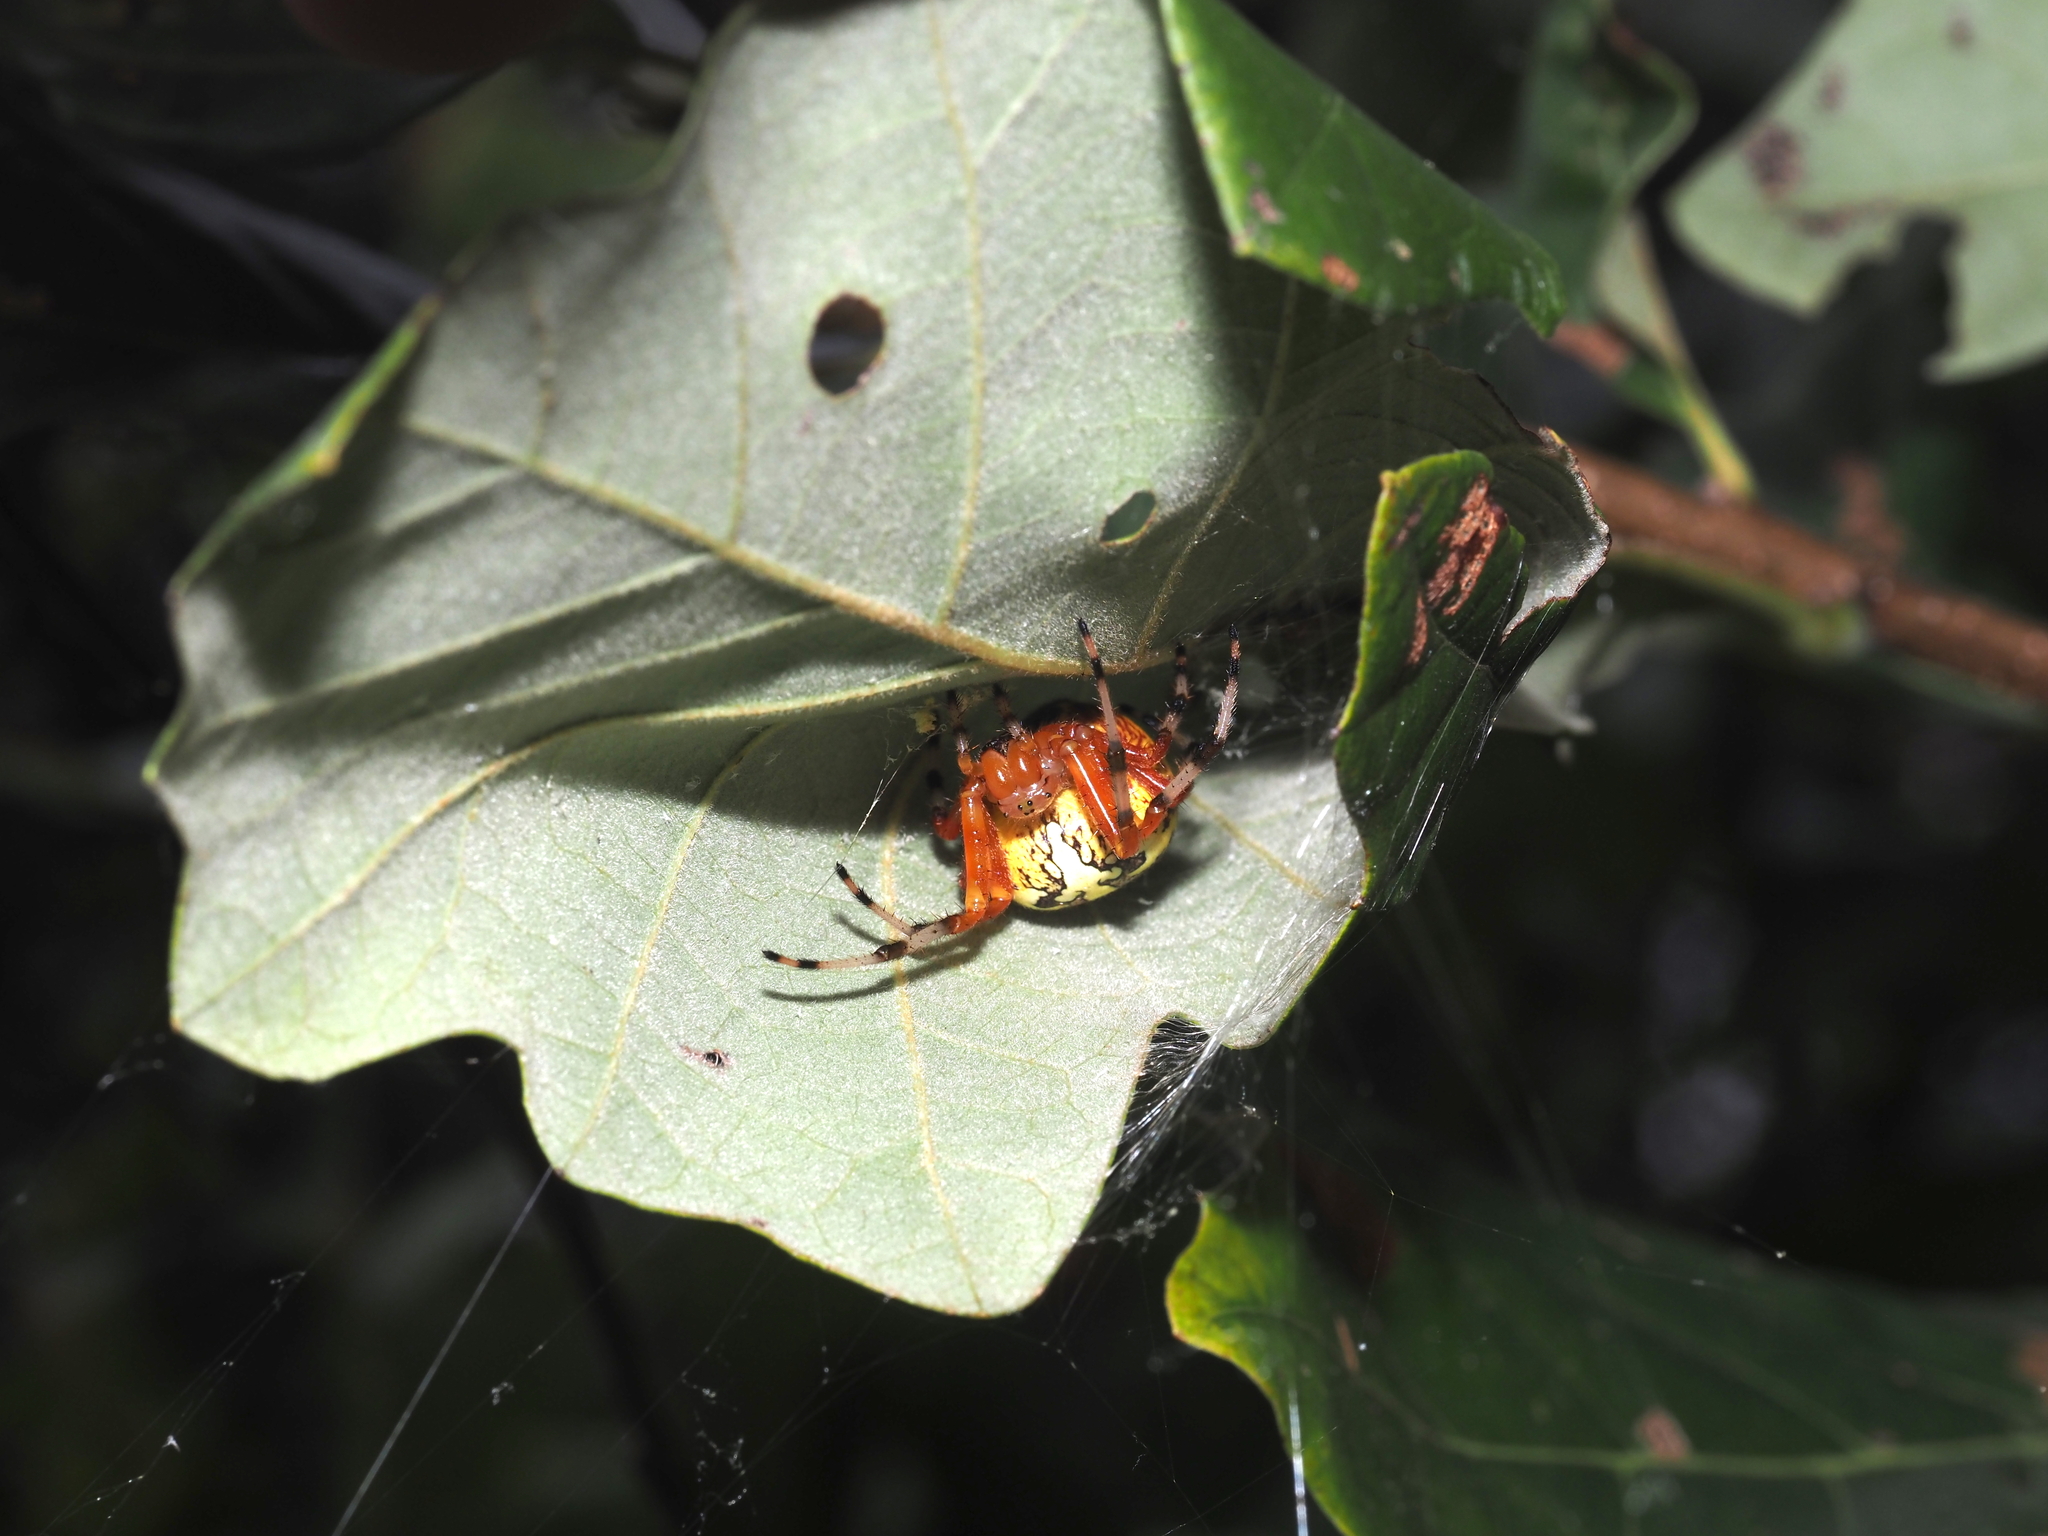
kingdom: Animalia
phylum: Arthropoda
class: Arachnida
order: Araneae
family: Araneidae
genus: Araneus
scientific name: Araneus marmoreus
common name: Marbled orbweaver
